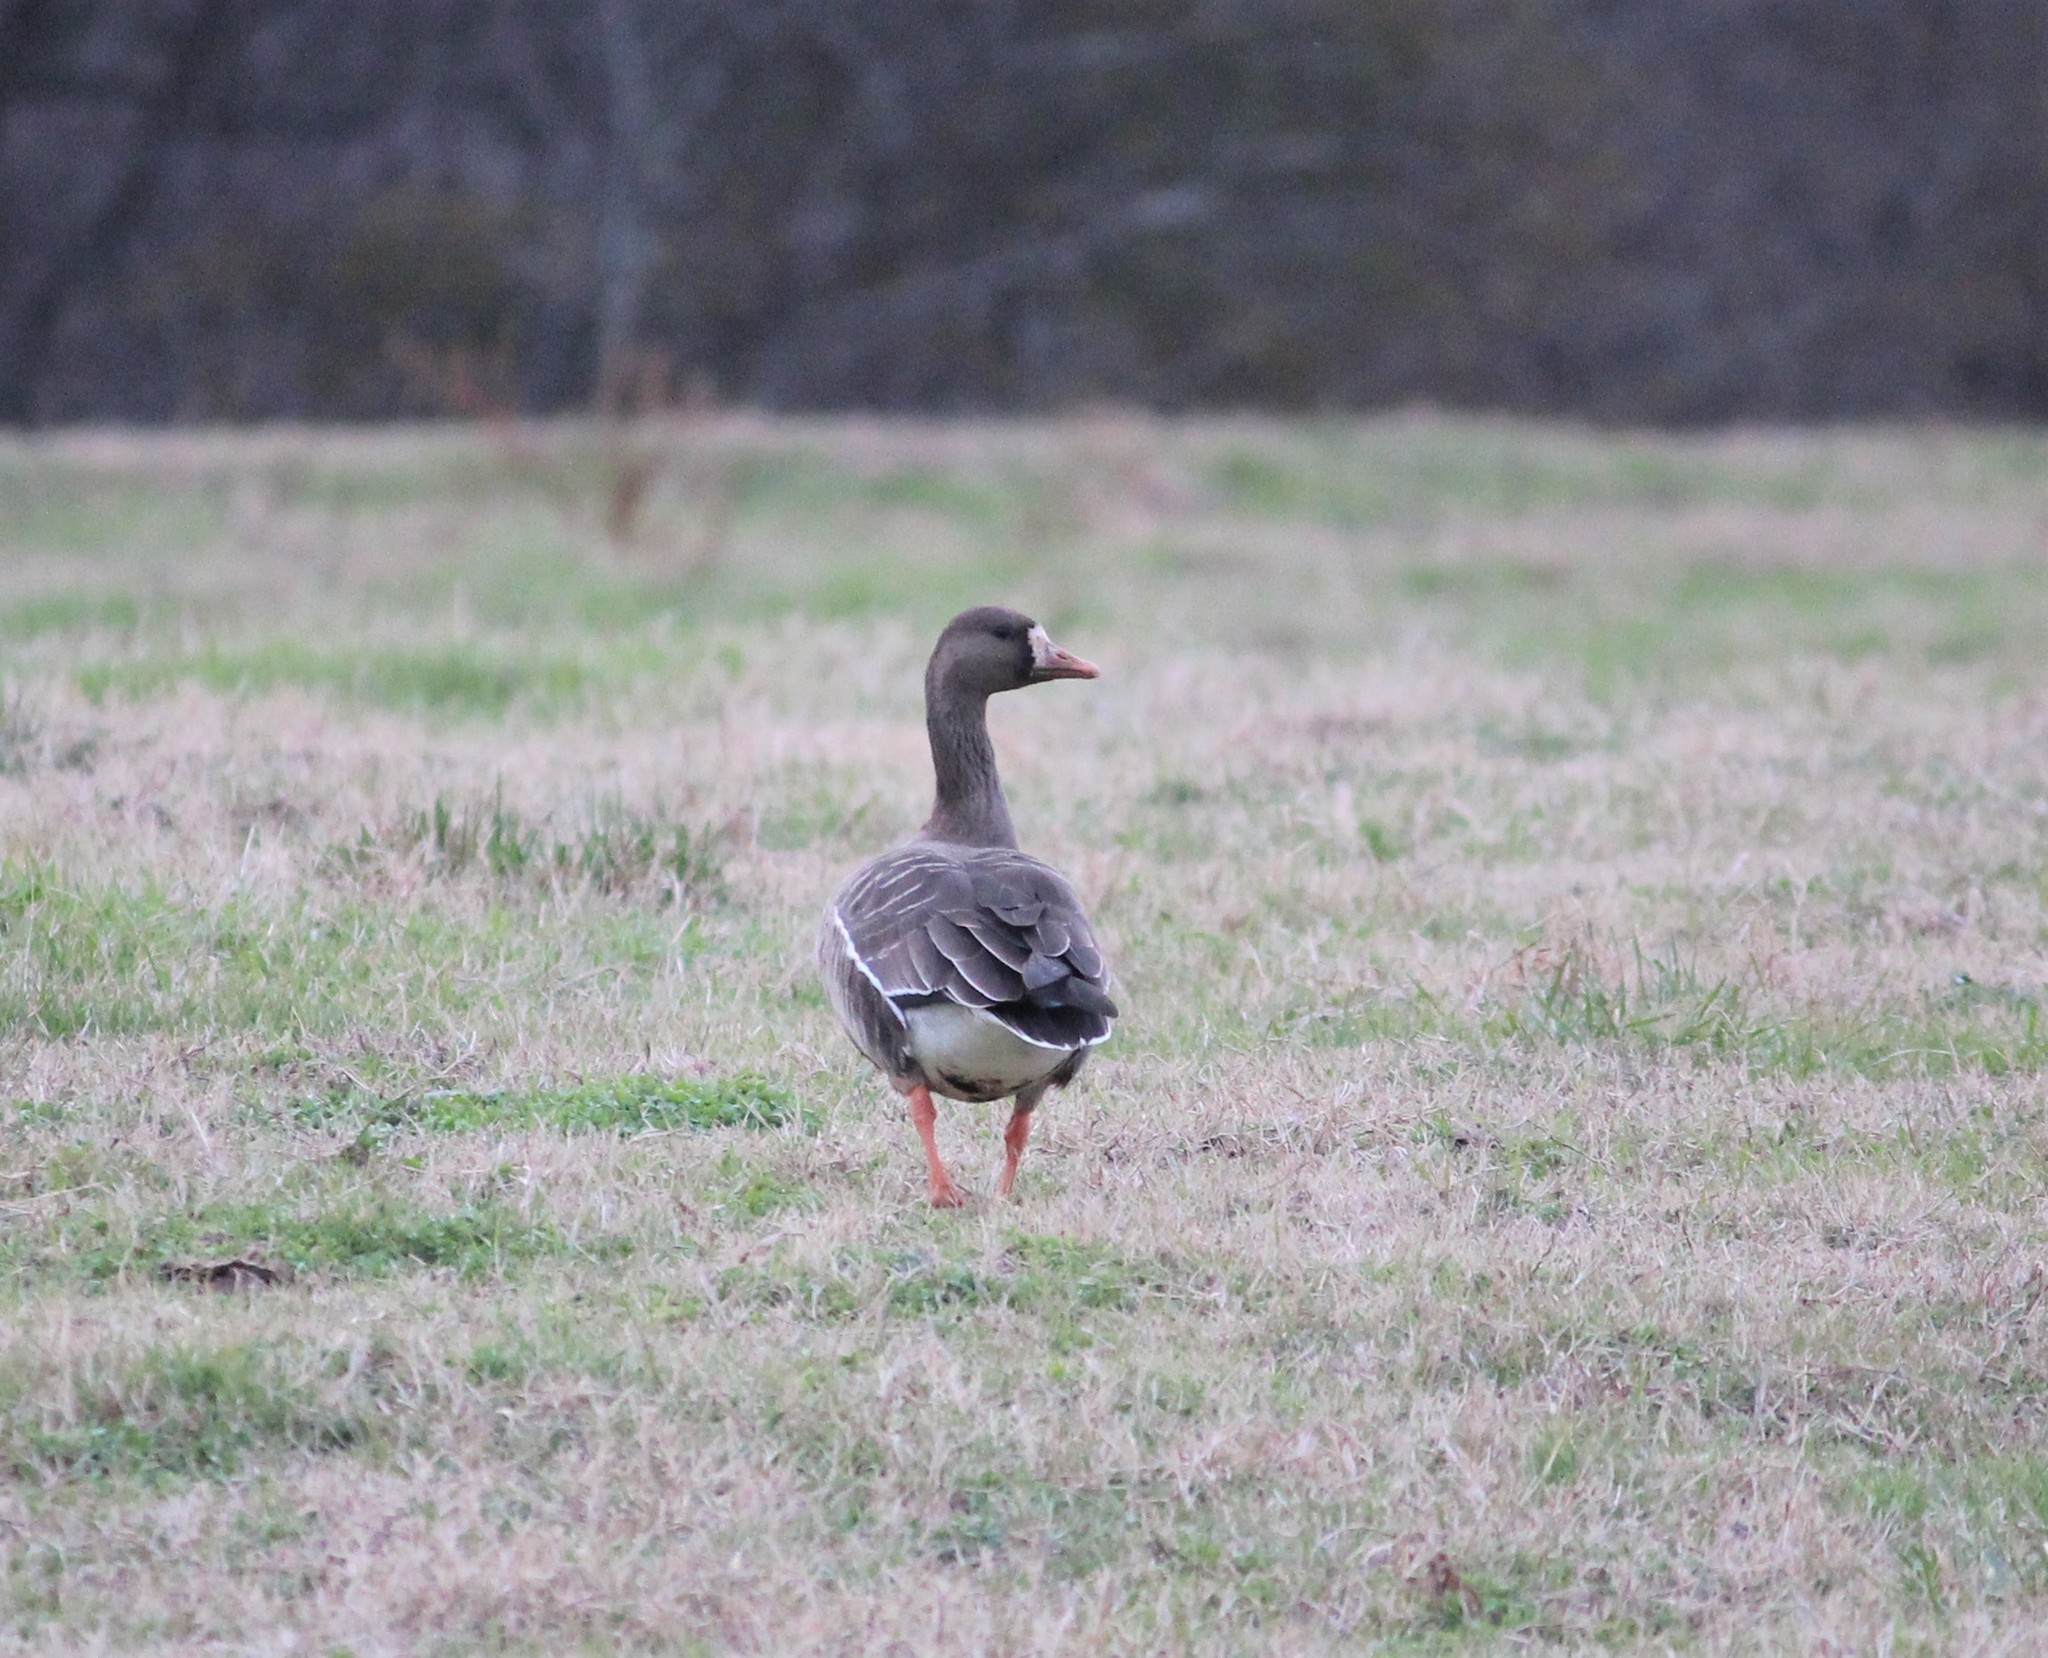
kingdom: Animalia
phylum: Chordata
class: Aves
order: Anseriformes
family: Anatidae
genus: Anser
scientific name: Anser albifrons
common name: Greater white-fronted goose
